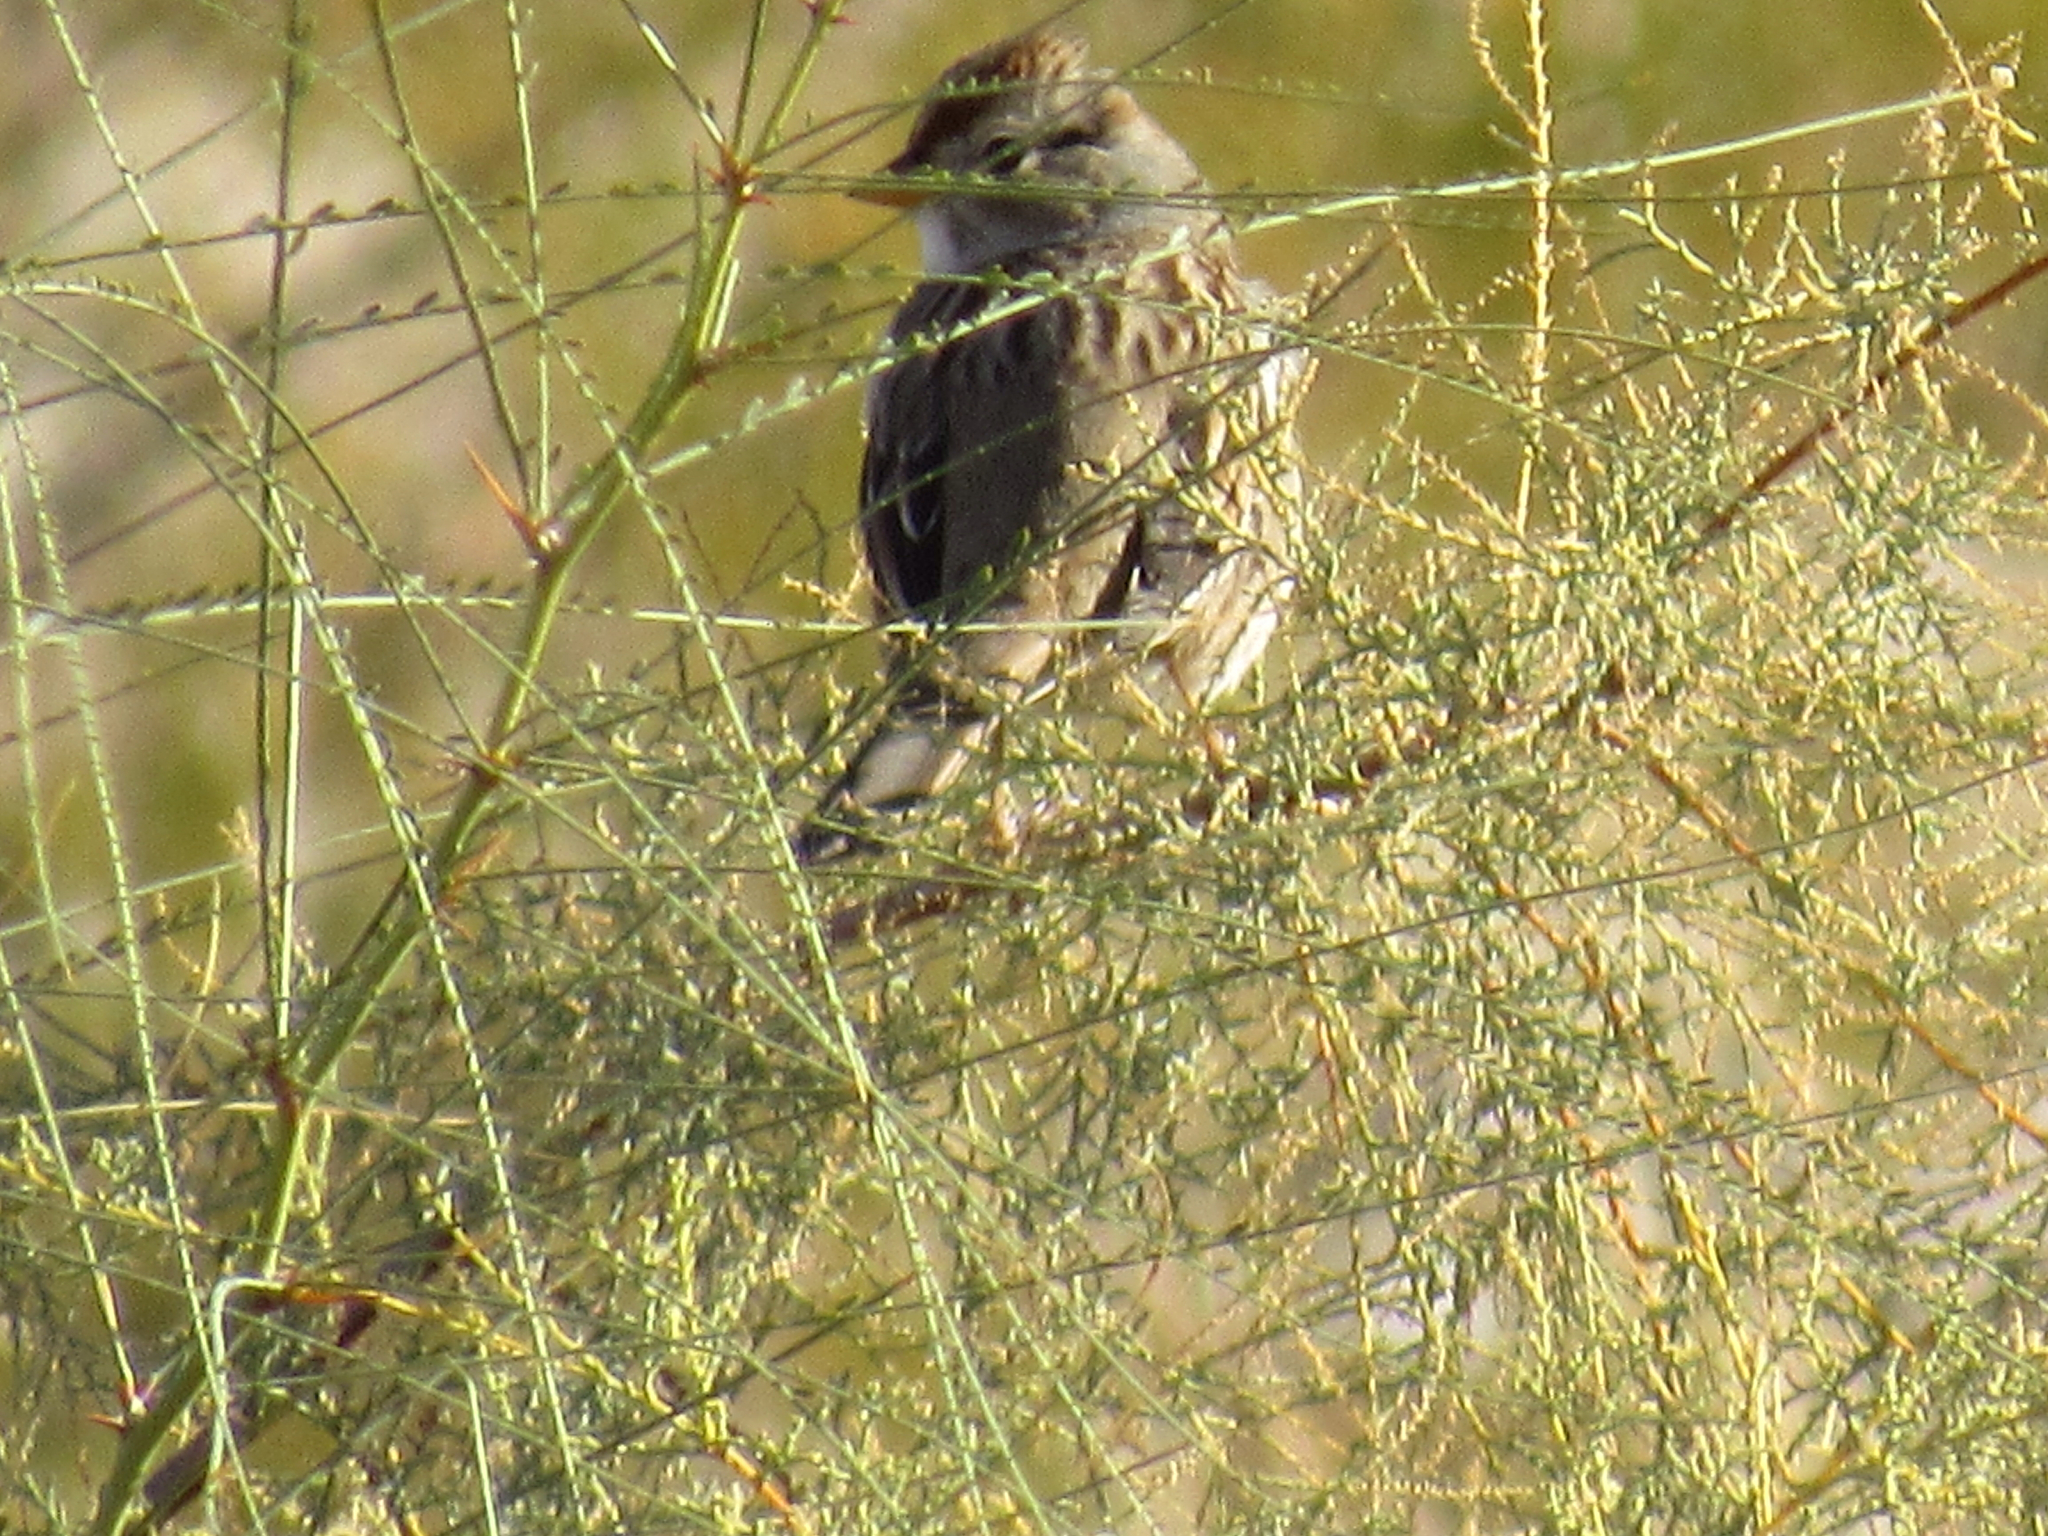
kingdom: Animalia
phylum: Chordata
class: Aves
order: Passeriformes
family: Passerellidae
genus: Zonotrichia
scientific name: Zonotrichia leucophrys
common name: White-crowned sparrow
